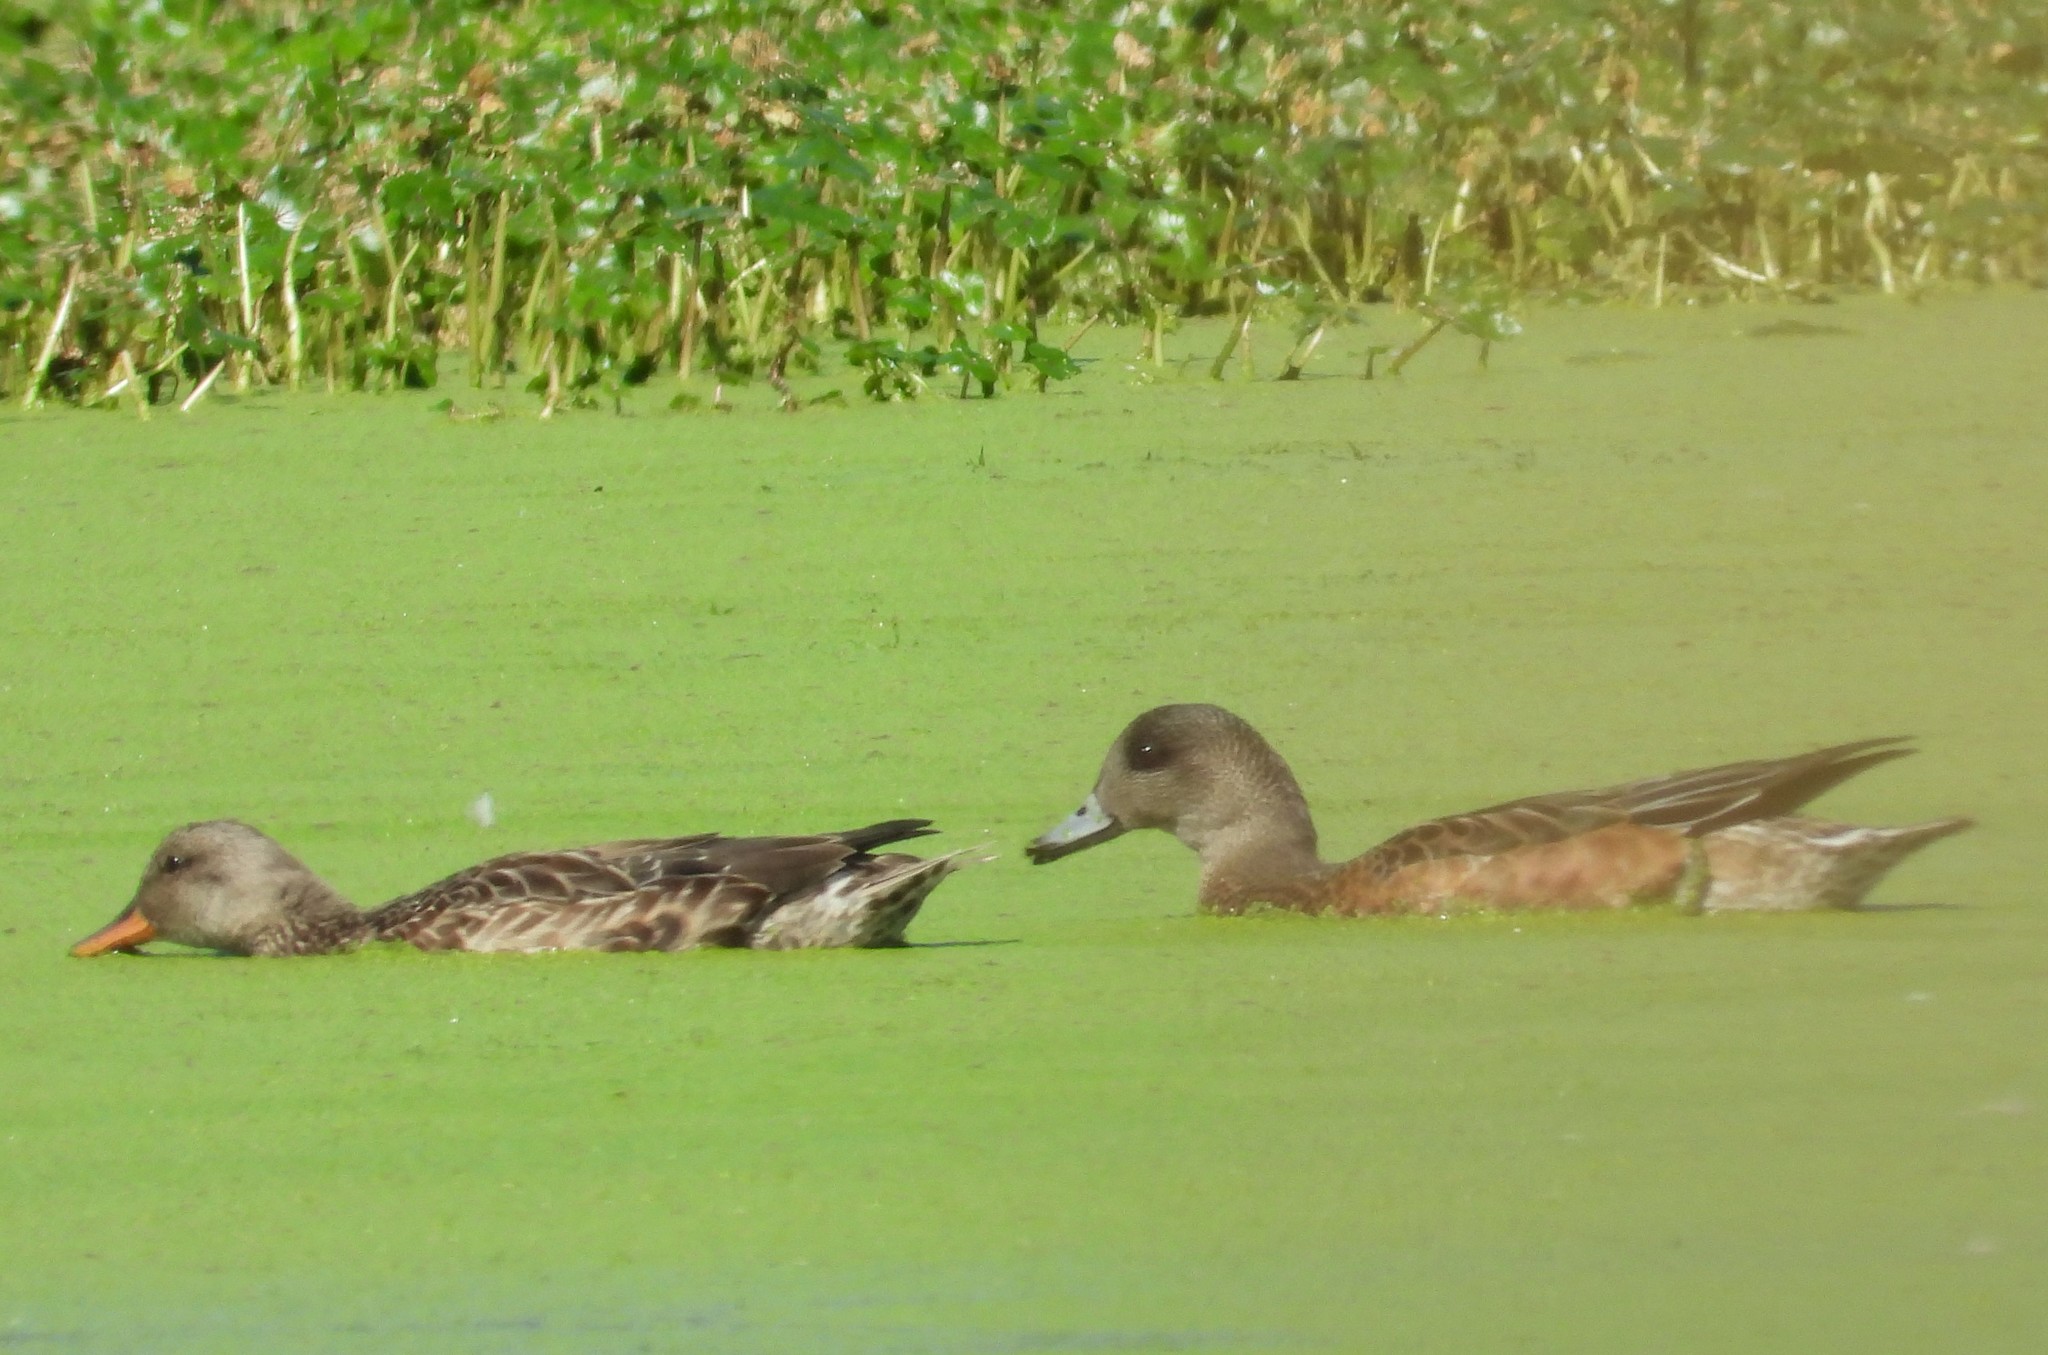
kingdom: Animalia
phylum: Chordata
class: Aves
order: Anseriformes
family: Anatidae
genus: Mareca
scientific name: Mareca americana
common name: American wigeon
